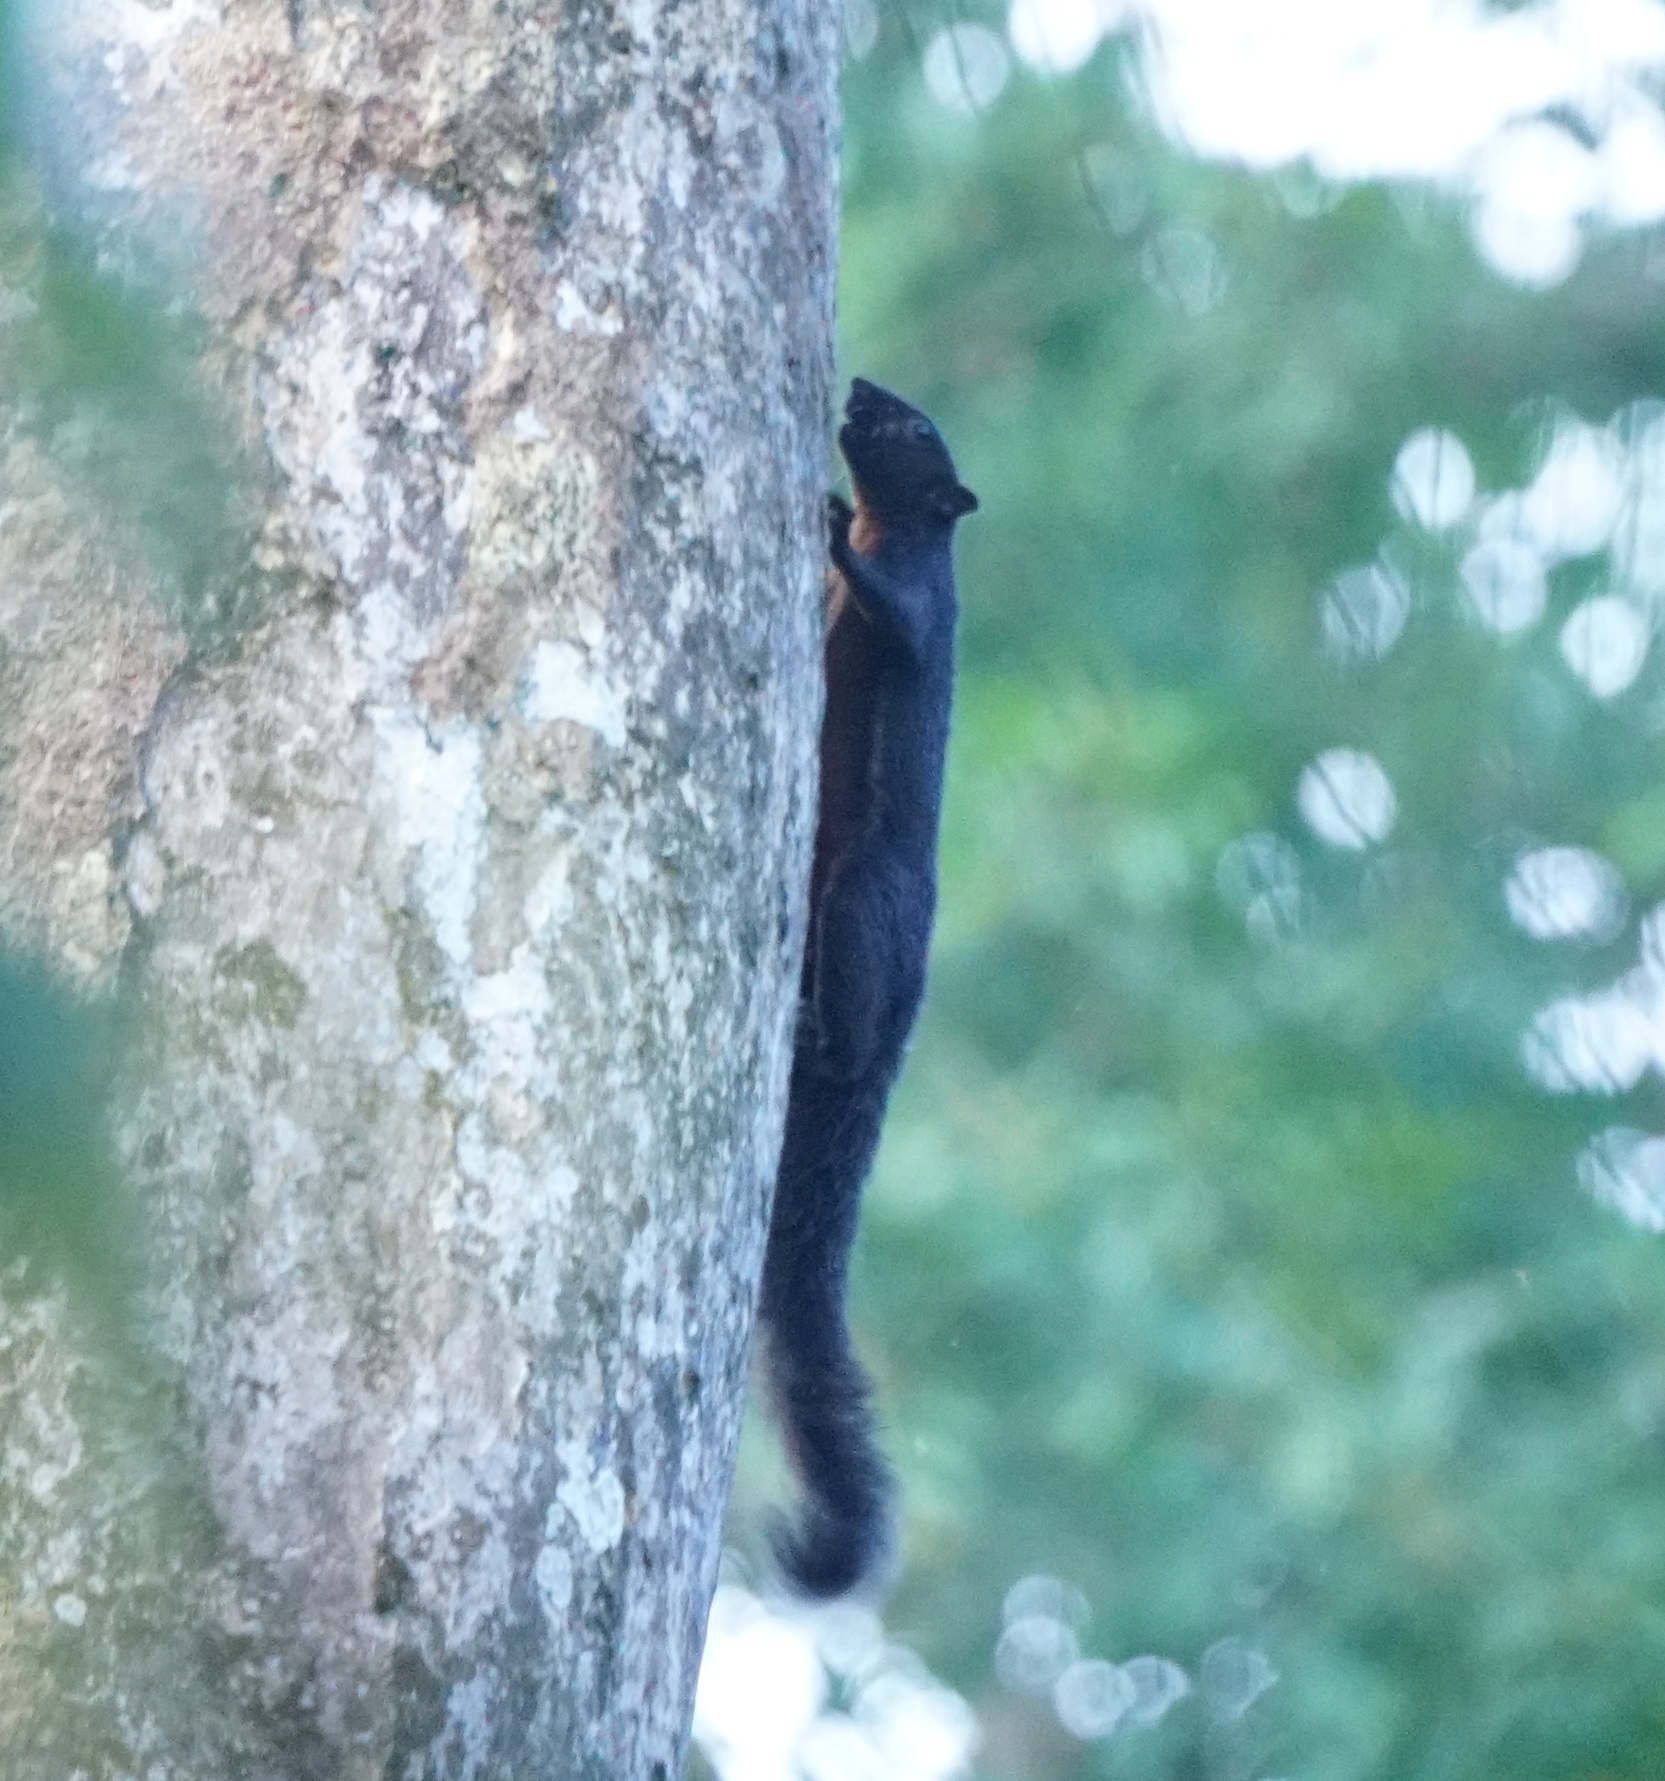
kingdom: Animalia
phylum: Chordata
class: Mammalia
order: Rodentia
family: Sciuridae
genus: Callosciurus
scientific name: Callosciurus prevostii
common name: Prevost's squirrel
